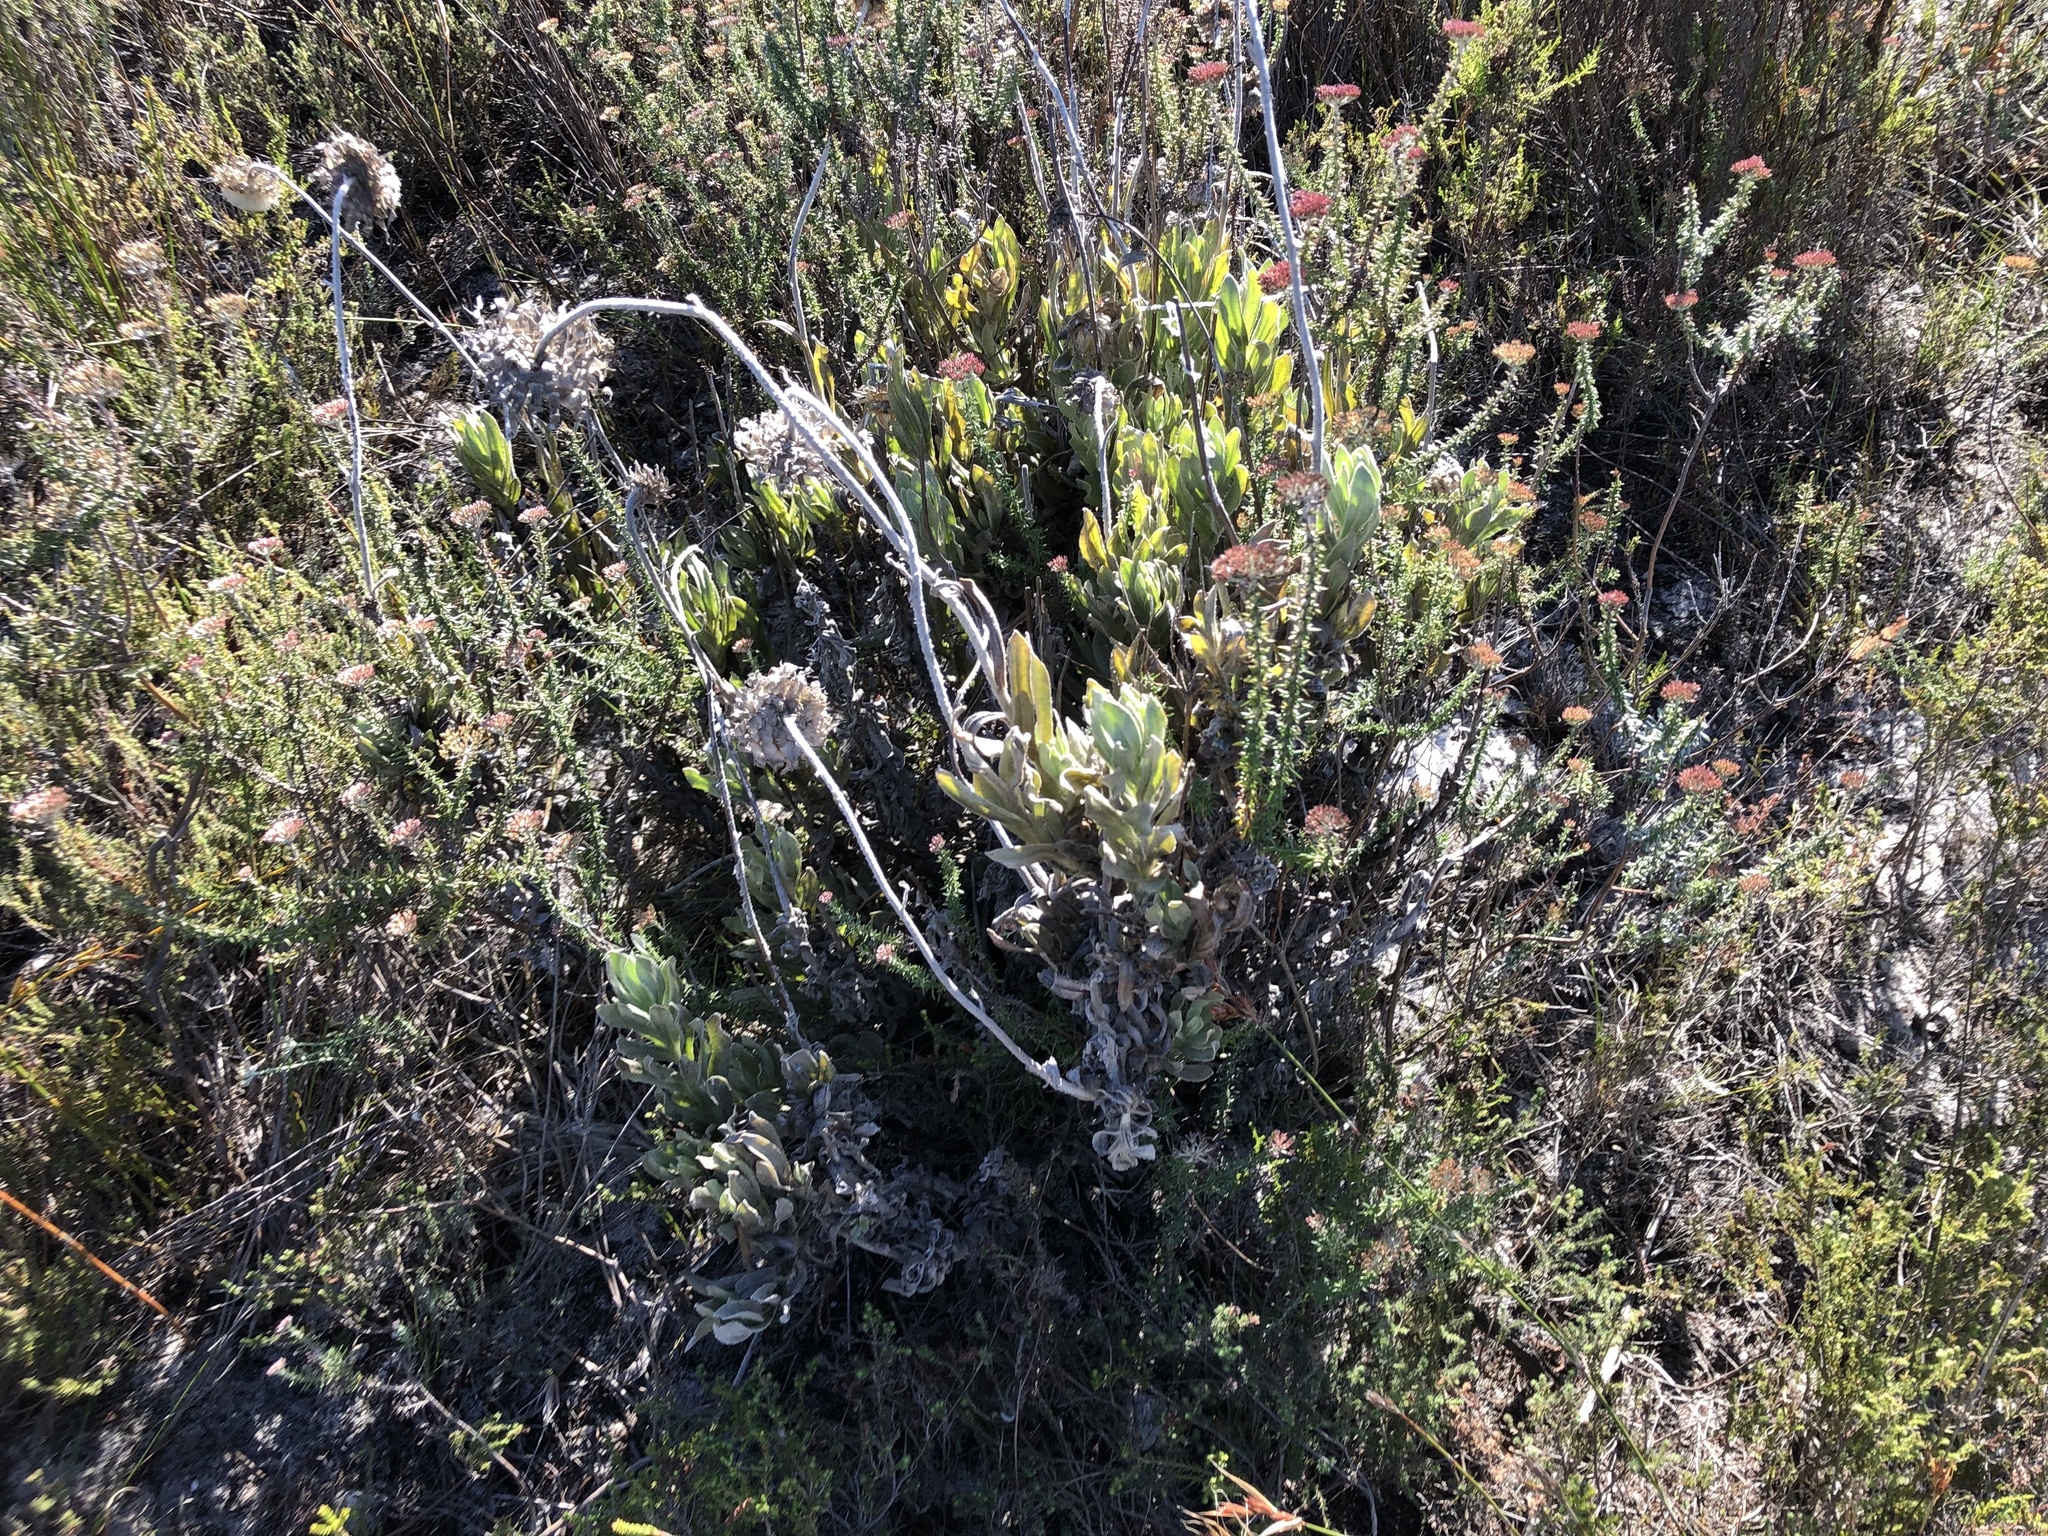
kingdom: Plantae
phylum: Tracheophyta
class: Magnoliopsida
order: Asterales
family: Asteraceae
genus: Syncarpha
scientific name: Syncarpha vestita
